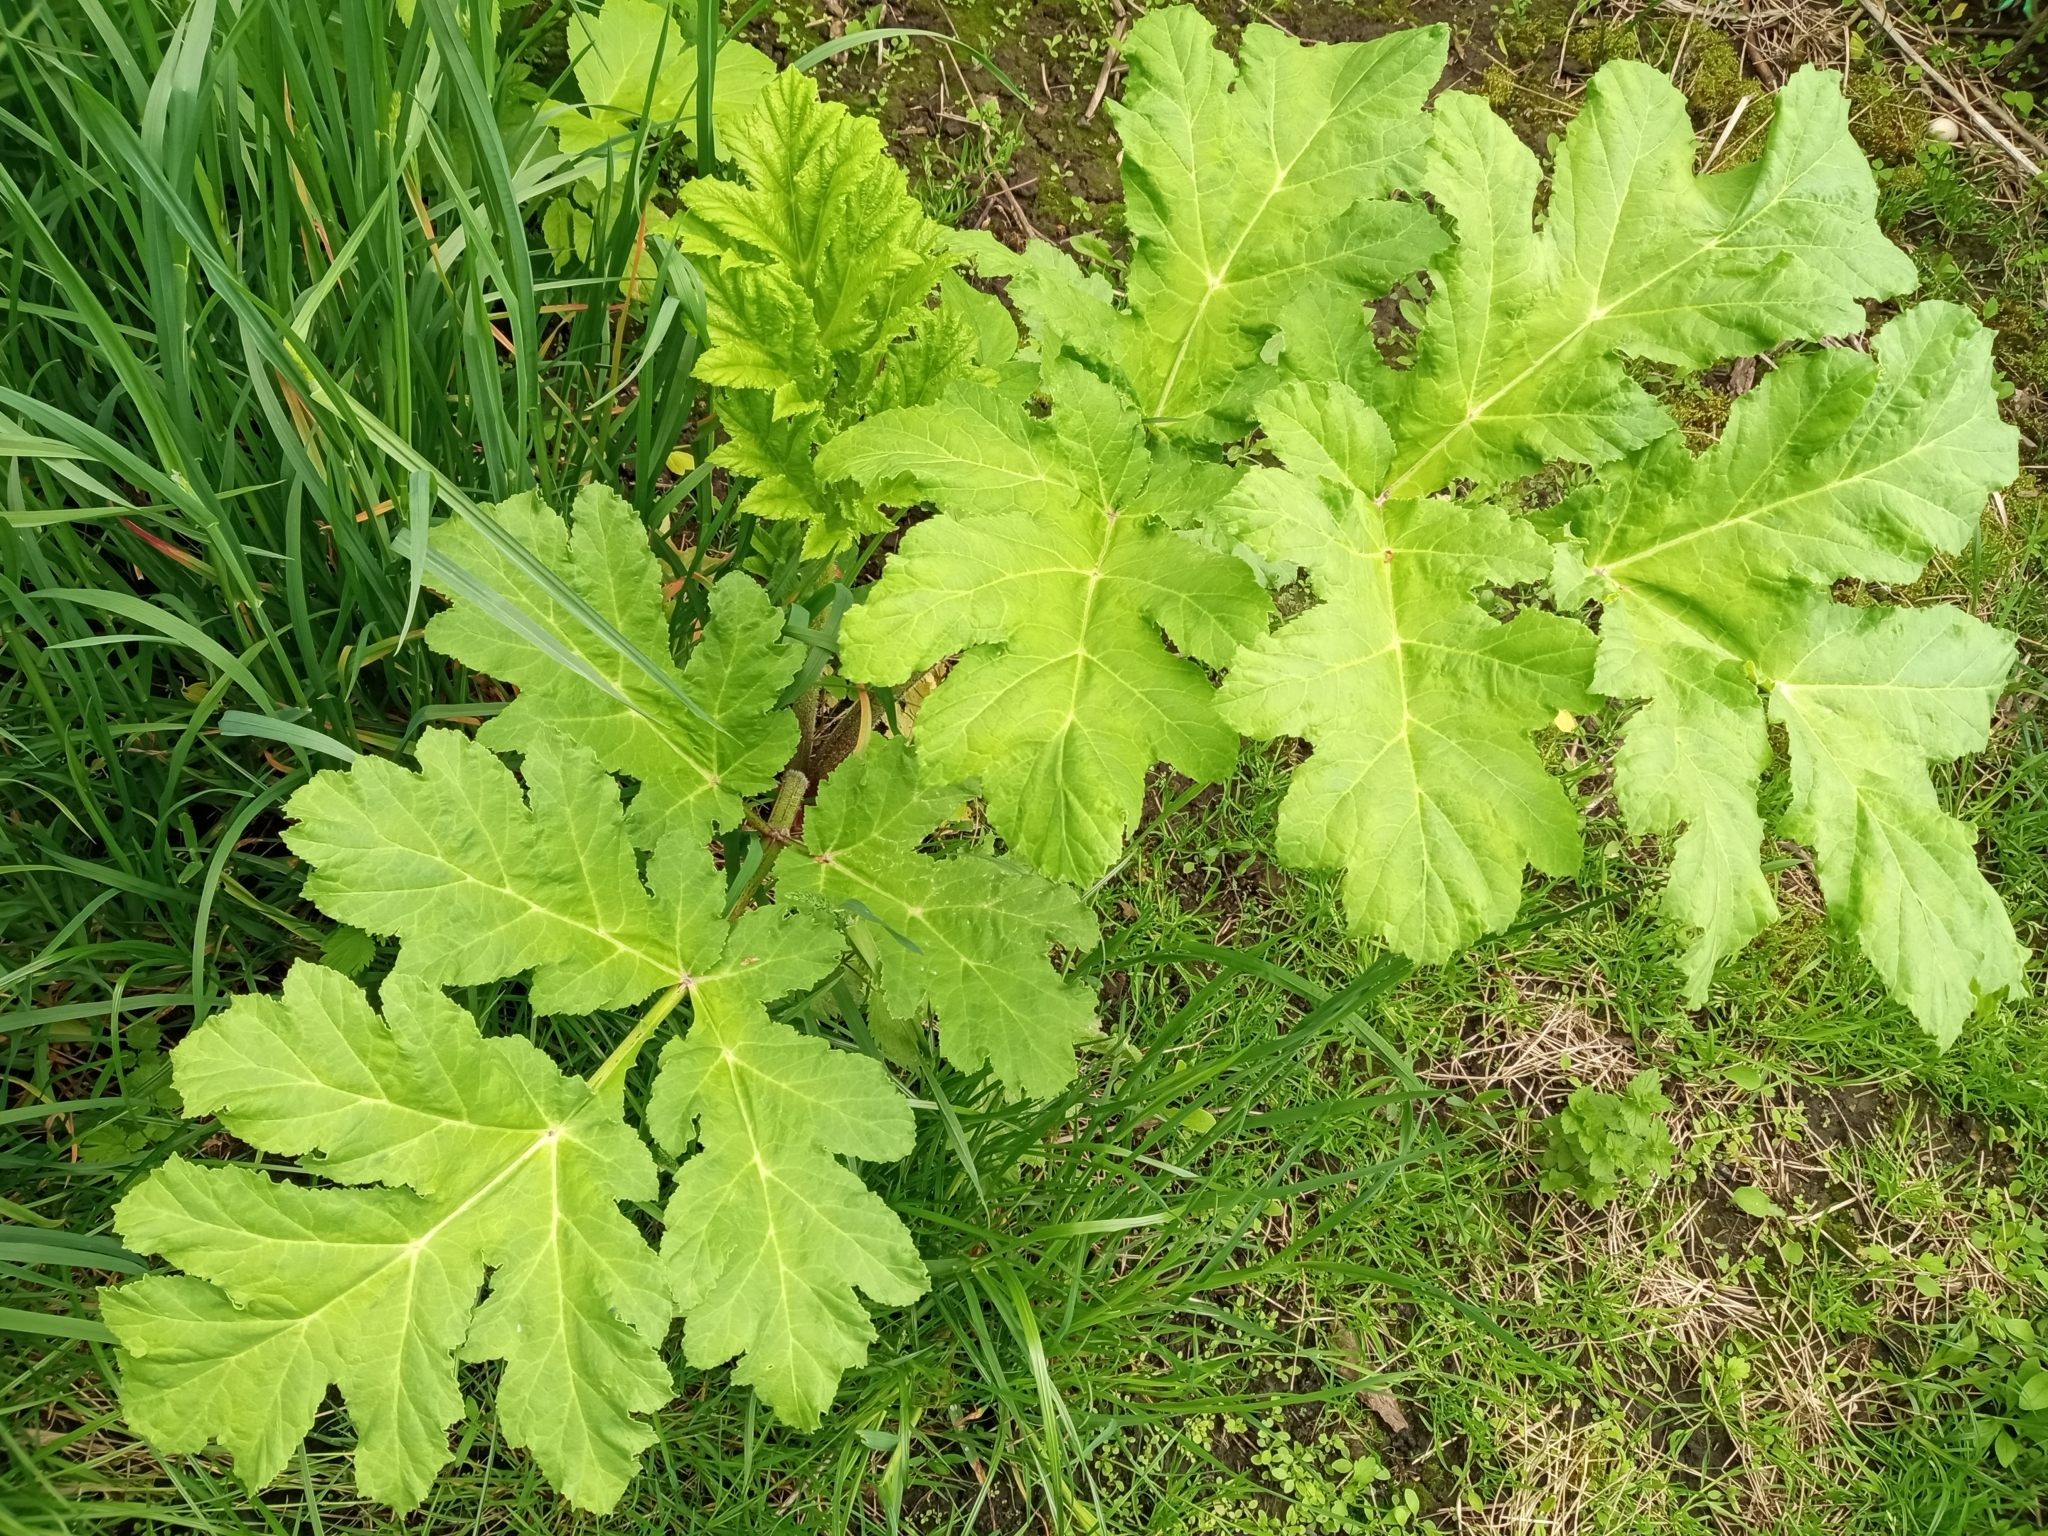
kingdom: Plantae
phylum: Tracheophyta
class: Magnoliopsida
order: Apiales
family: Apiaceae
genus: Heracleum
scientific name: Heracleum sosnowskyi
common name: Sosnowsky's hogweed
